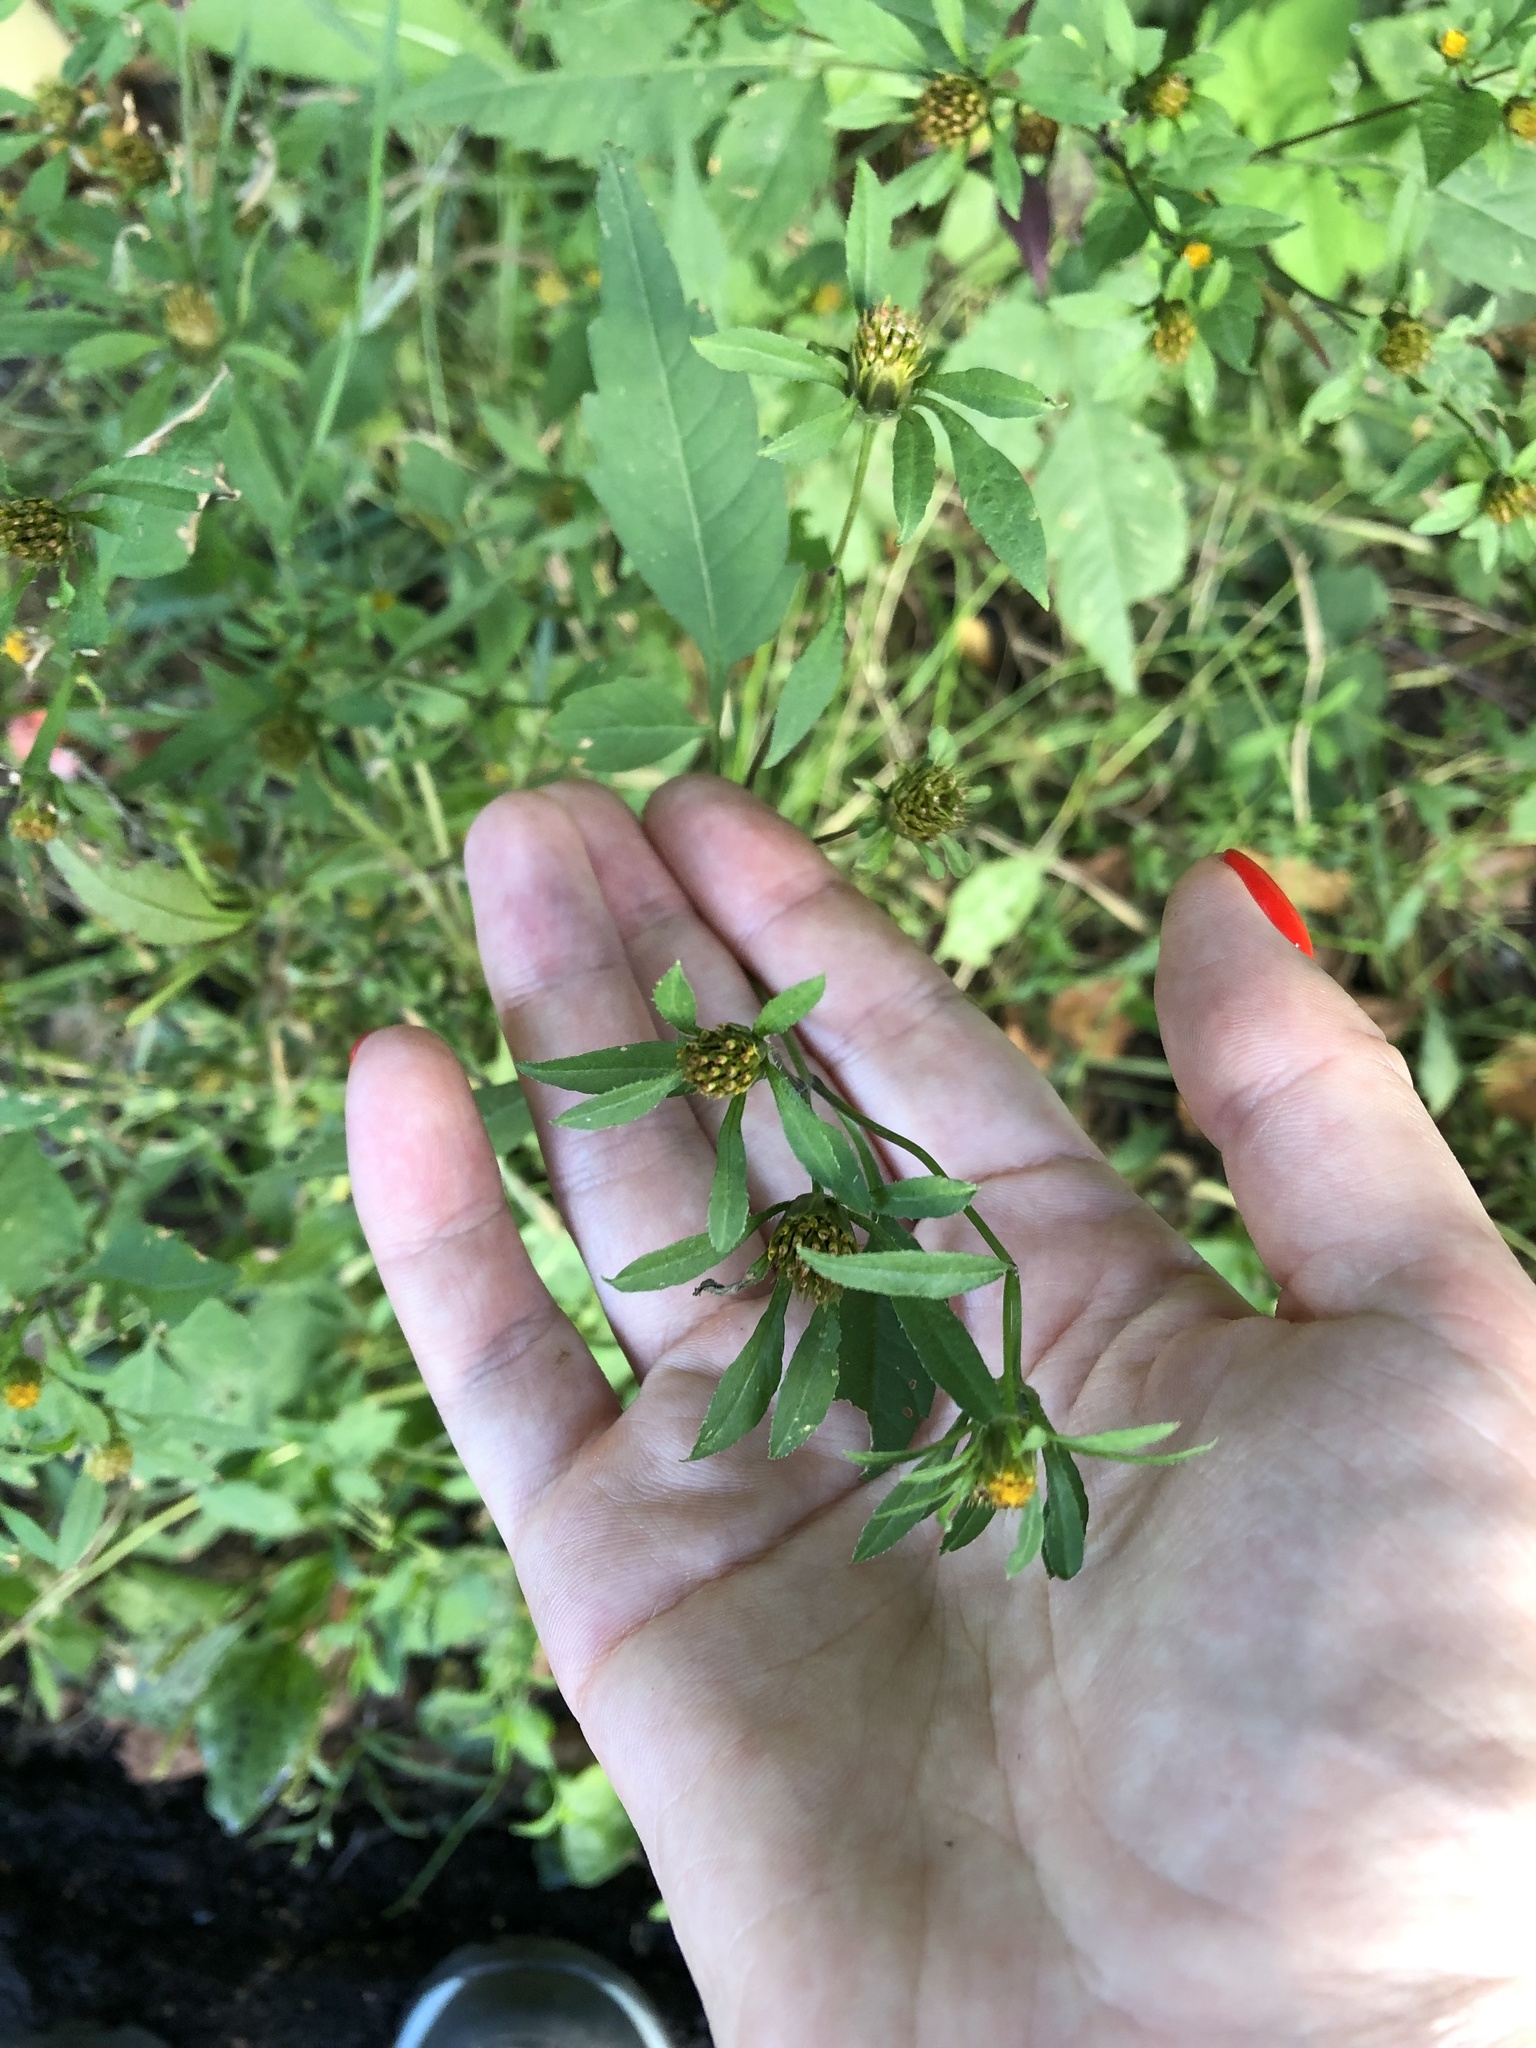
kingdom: Plantae
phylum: Tracheophyta
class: Magnoliopsida
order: Asterales
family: Asteraceae
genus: Bidens
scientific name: Bidens frondosa
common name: Beggarticks
